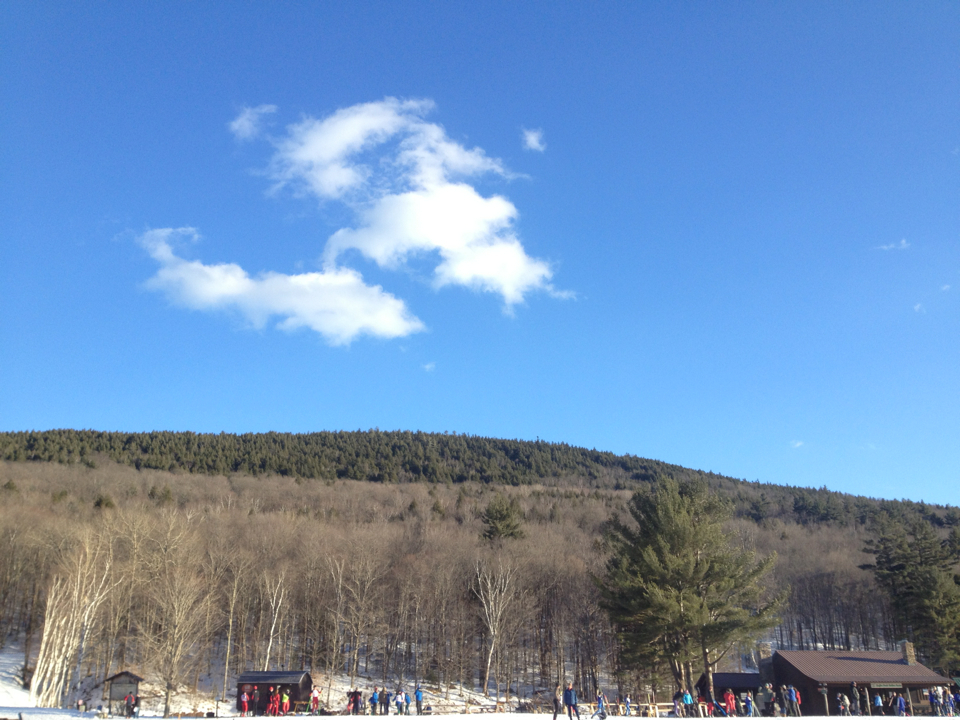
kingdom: Plantae
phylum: Tracheophyta
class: Pinopsida
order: Pinales
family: Pinaceae
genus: Pinus
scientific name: Pinus strobus
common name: Weymouth pine
